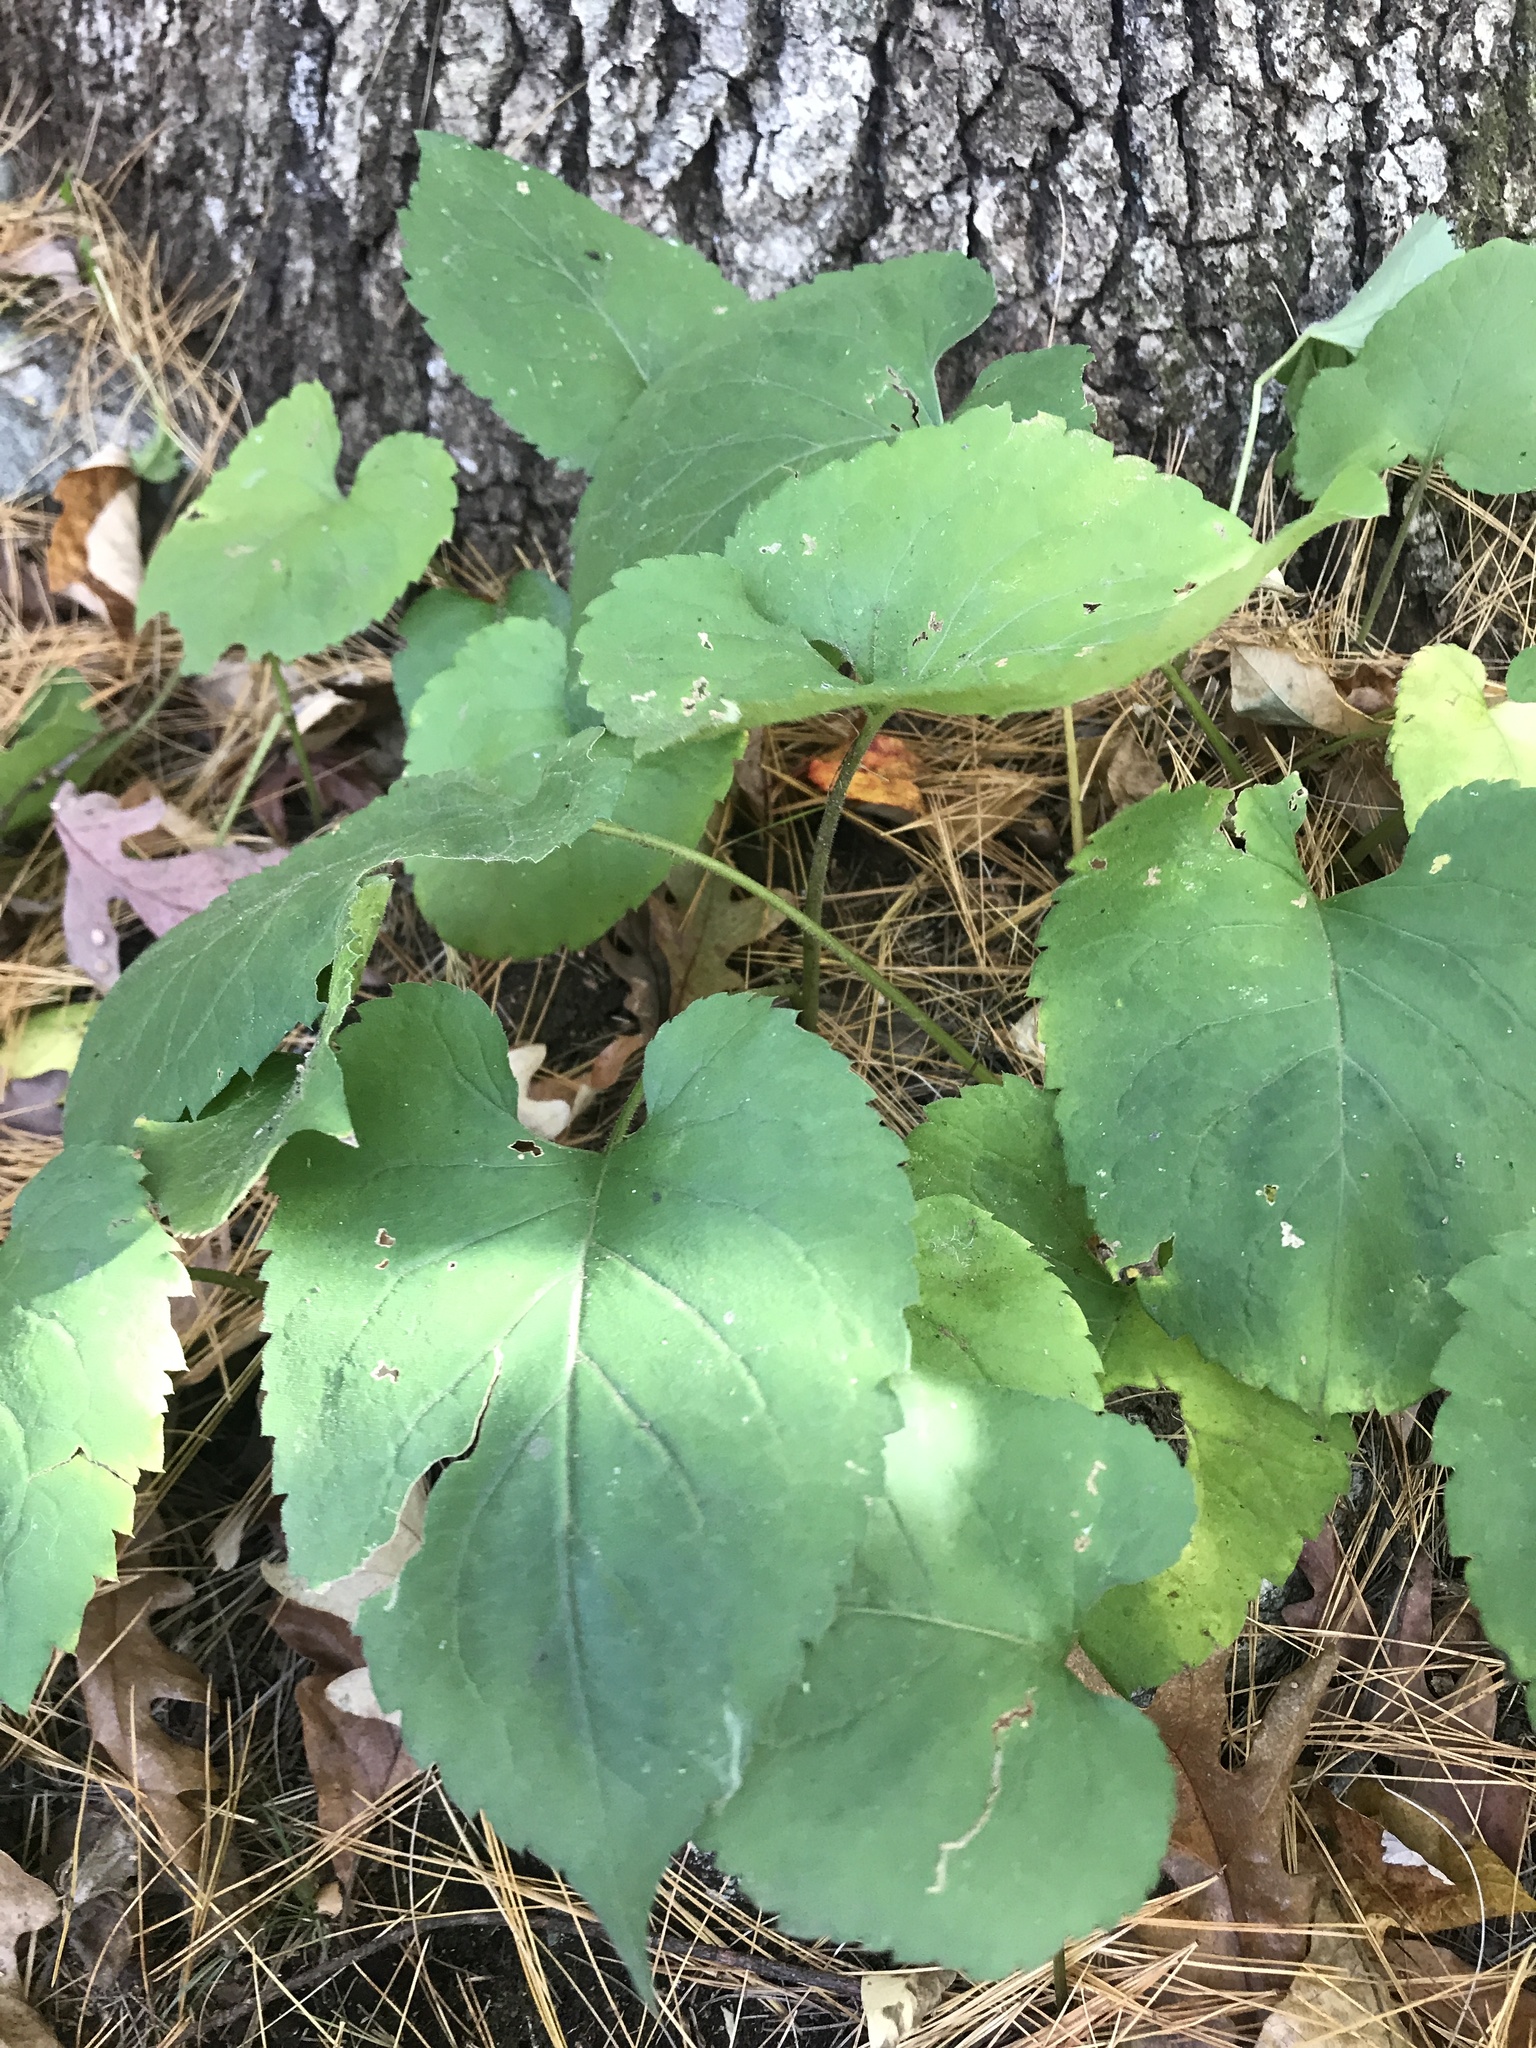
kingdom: Plantae
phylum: Tracheophyta
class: Magnoliopsida
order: Asterales
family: Asteraceae
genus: Eurybia
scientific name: Eurybia macrophylla
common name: Big-leaved aster
